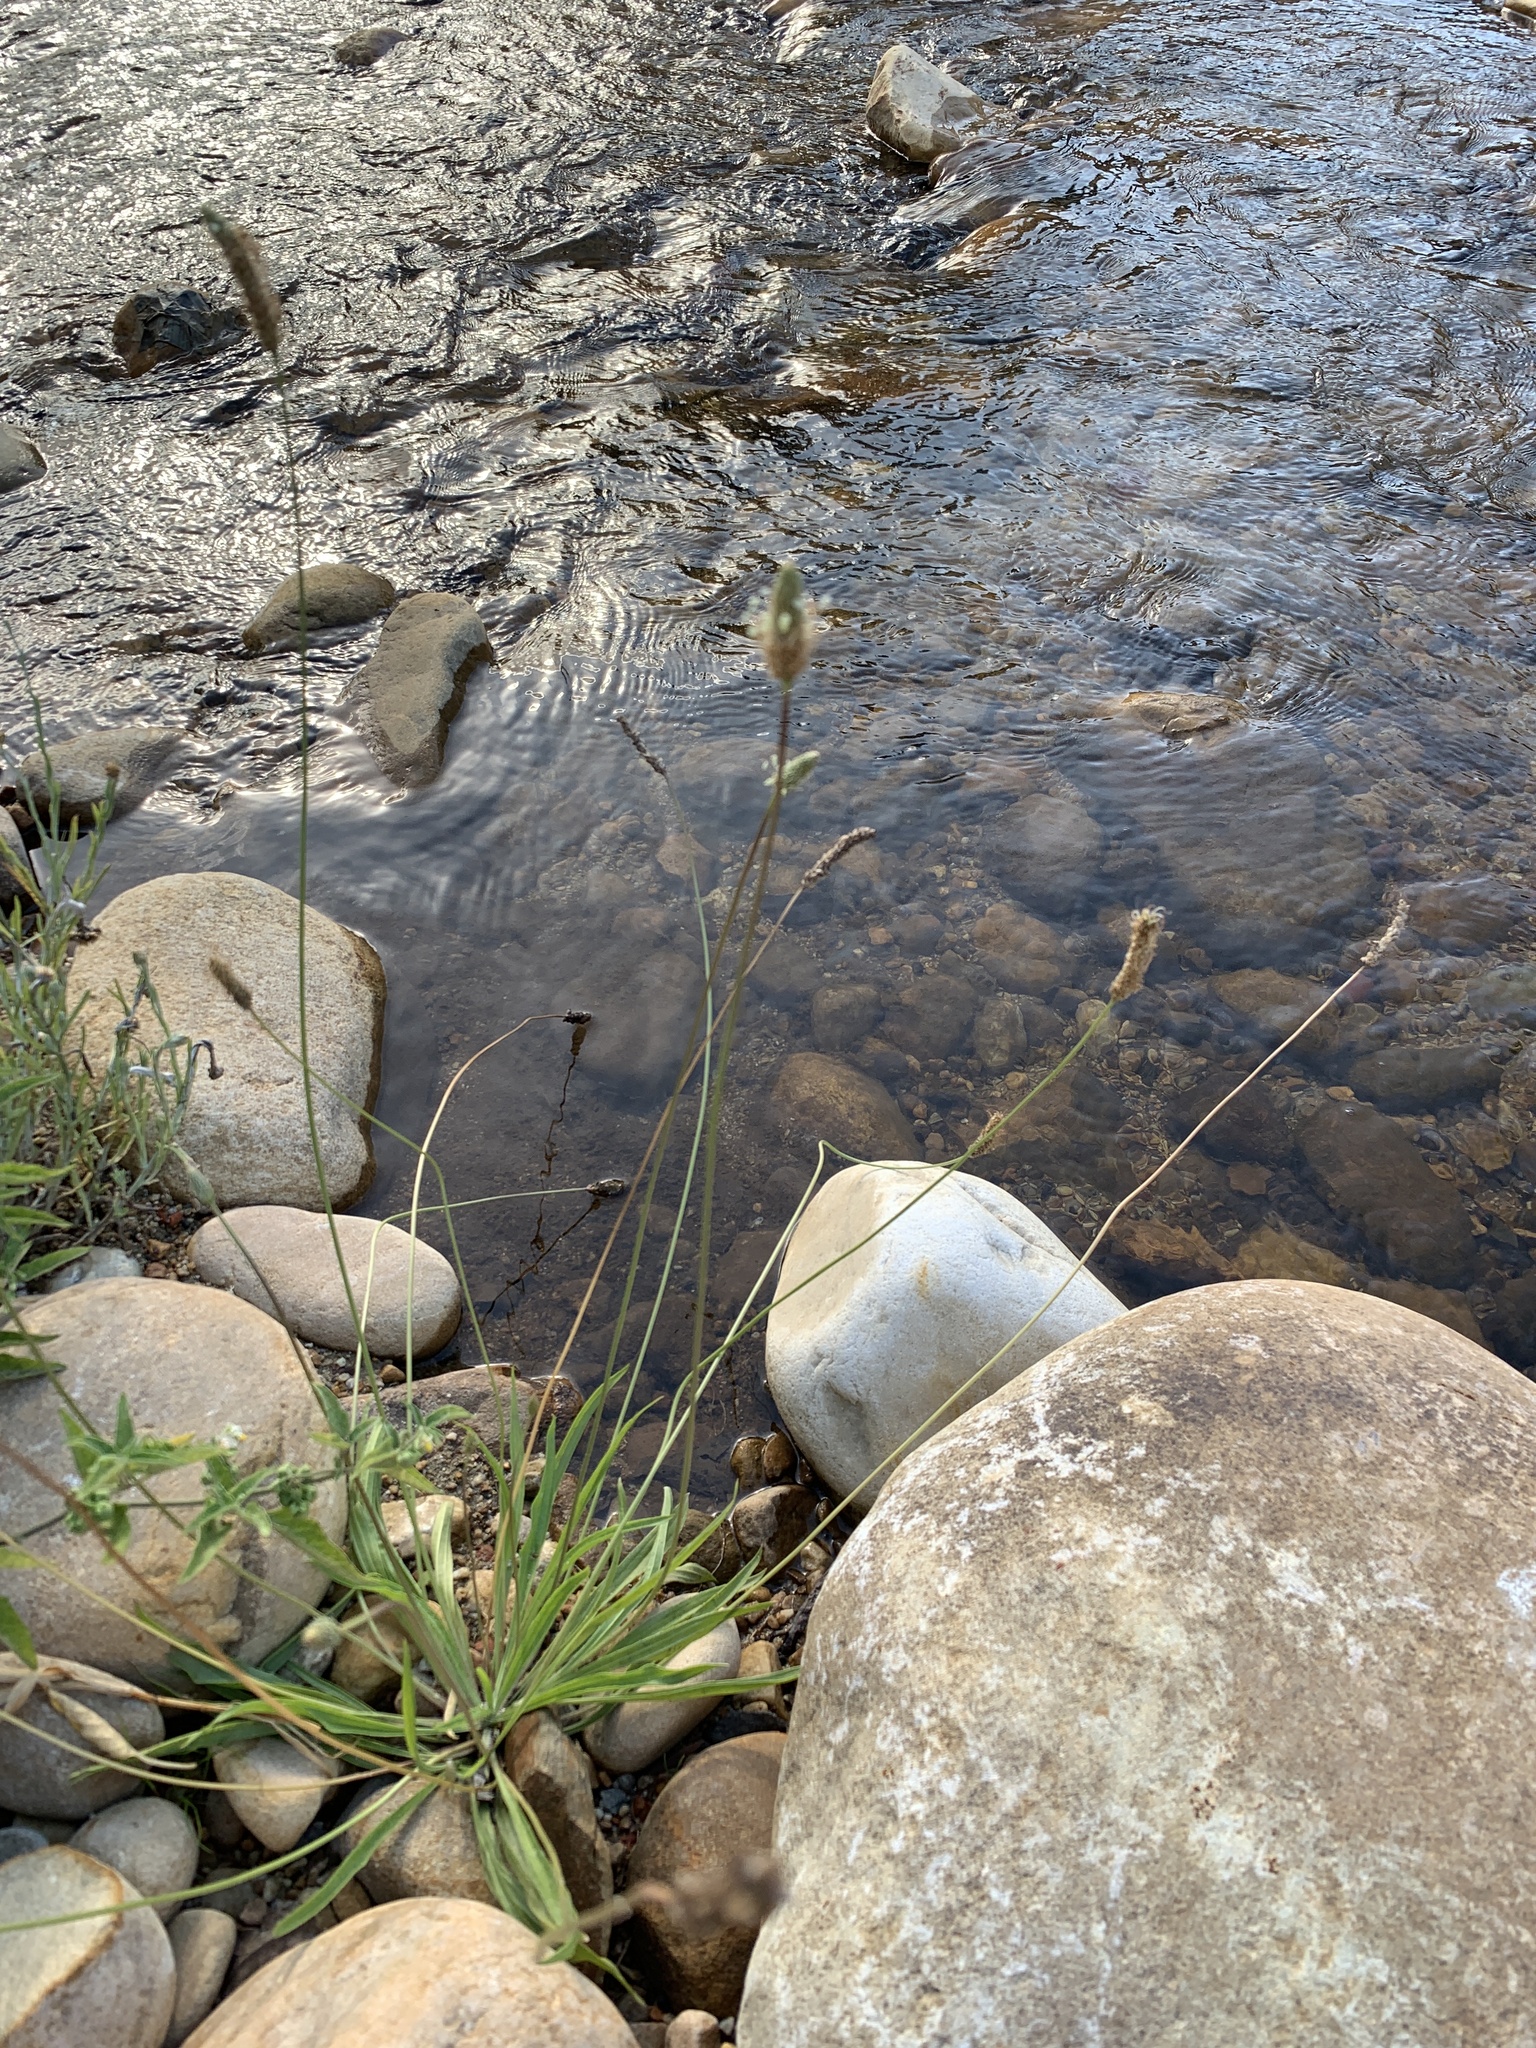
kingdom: Plantae
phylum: Tracheophyta
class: Magnoliopsida
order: Lamiales
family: Plantaginaceae
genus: Plantago
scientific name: Plantago lanceolata
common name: Ribwort plantain
